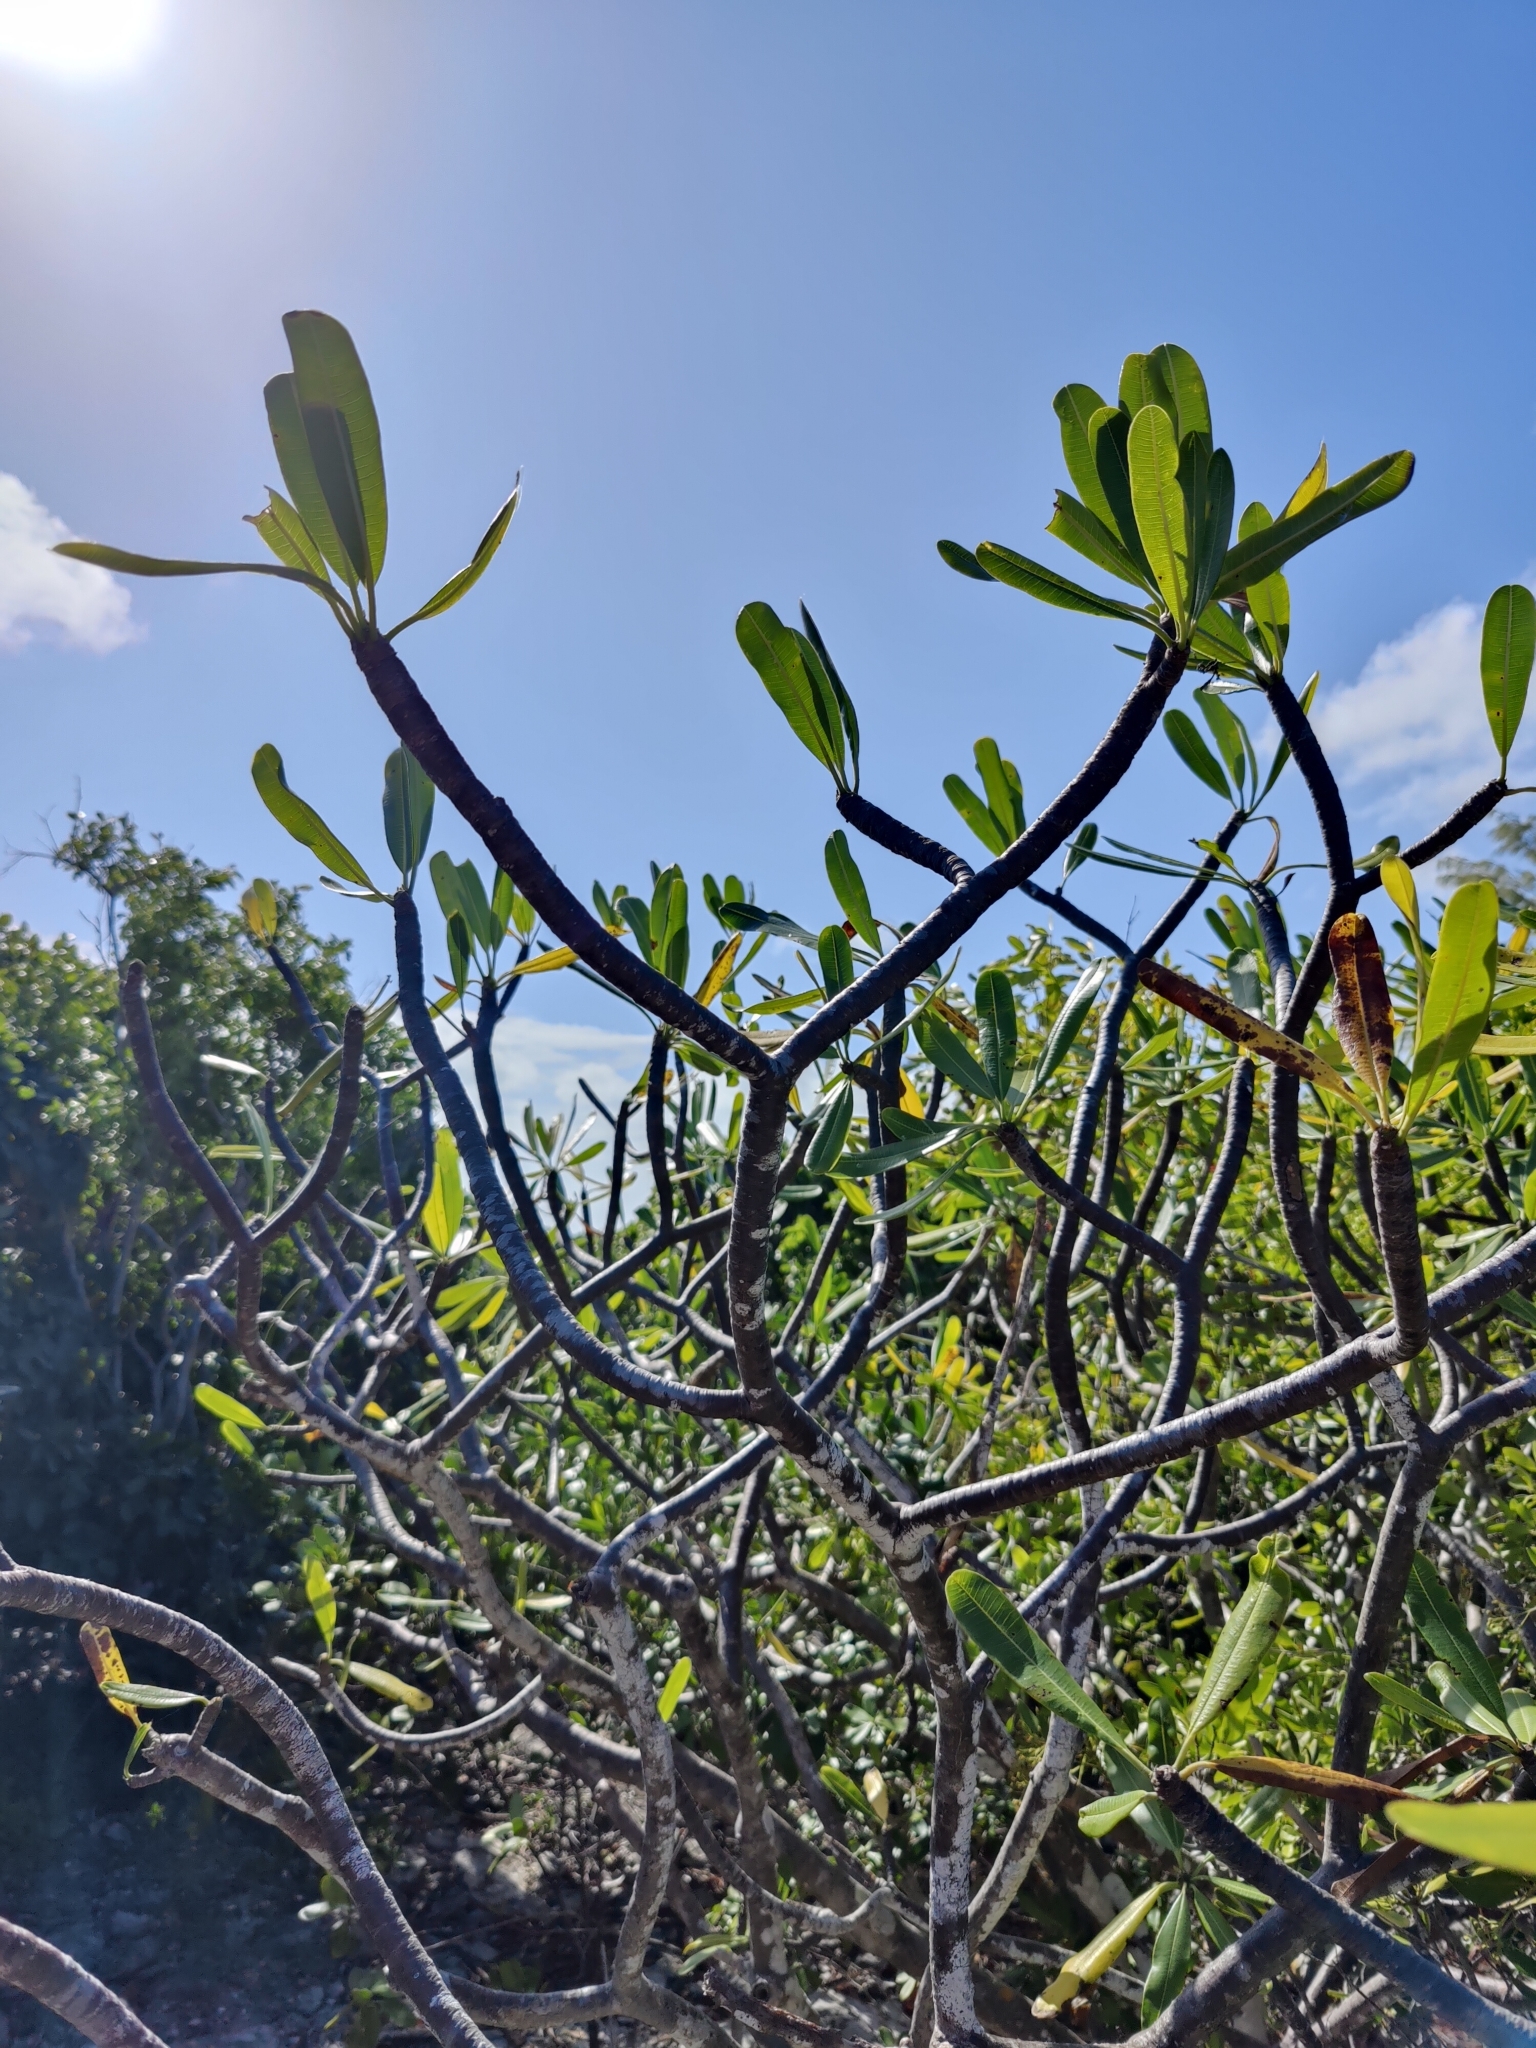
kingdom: Plantae
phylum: Tracheophyta
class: Magnoliopsida
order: Gentianales
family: Apocynaceae
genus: Plumeria
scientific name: Plumeria obtusa
